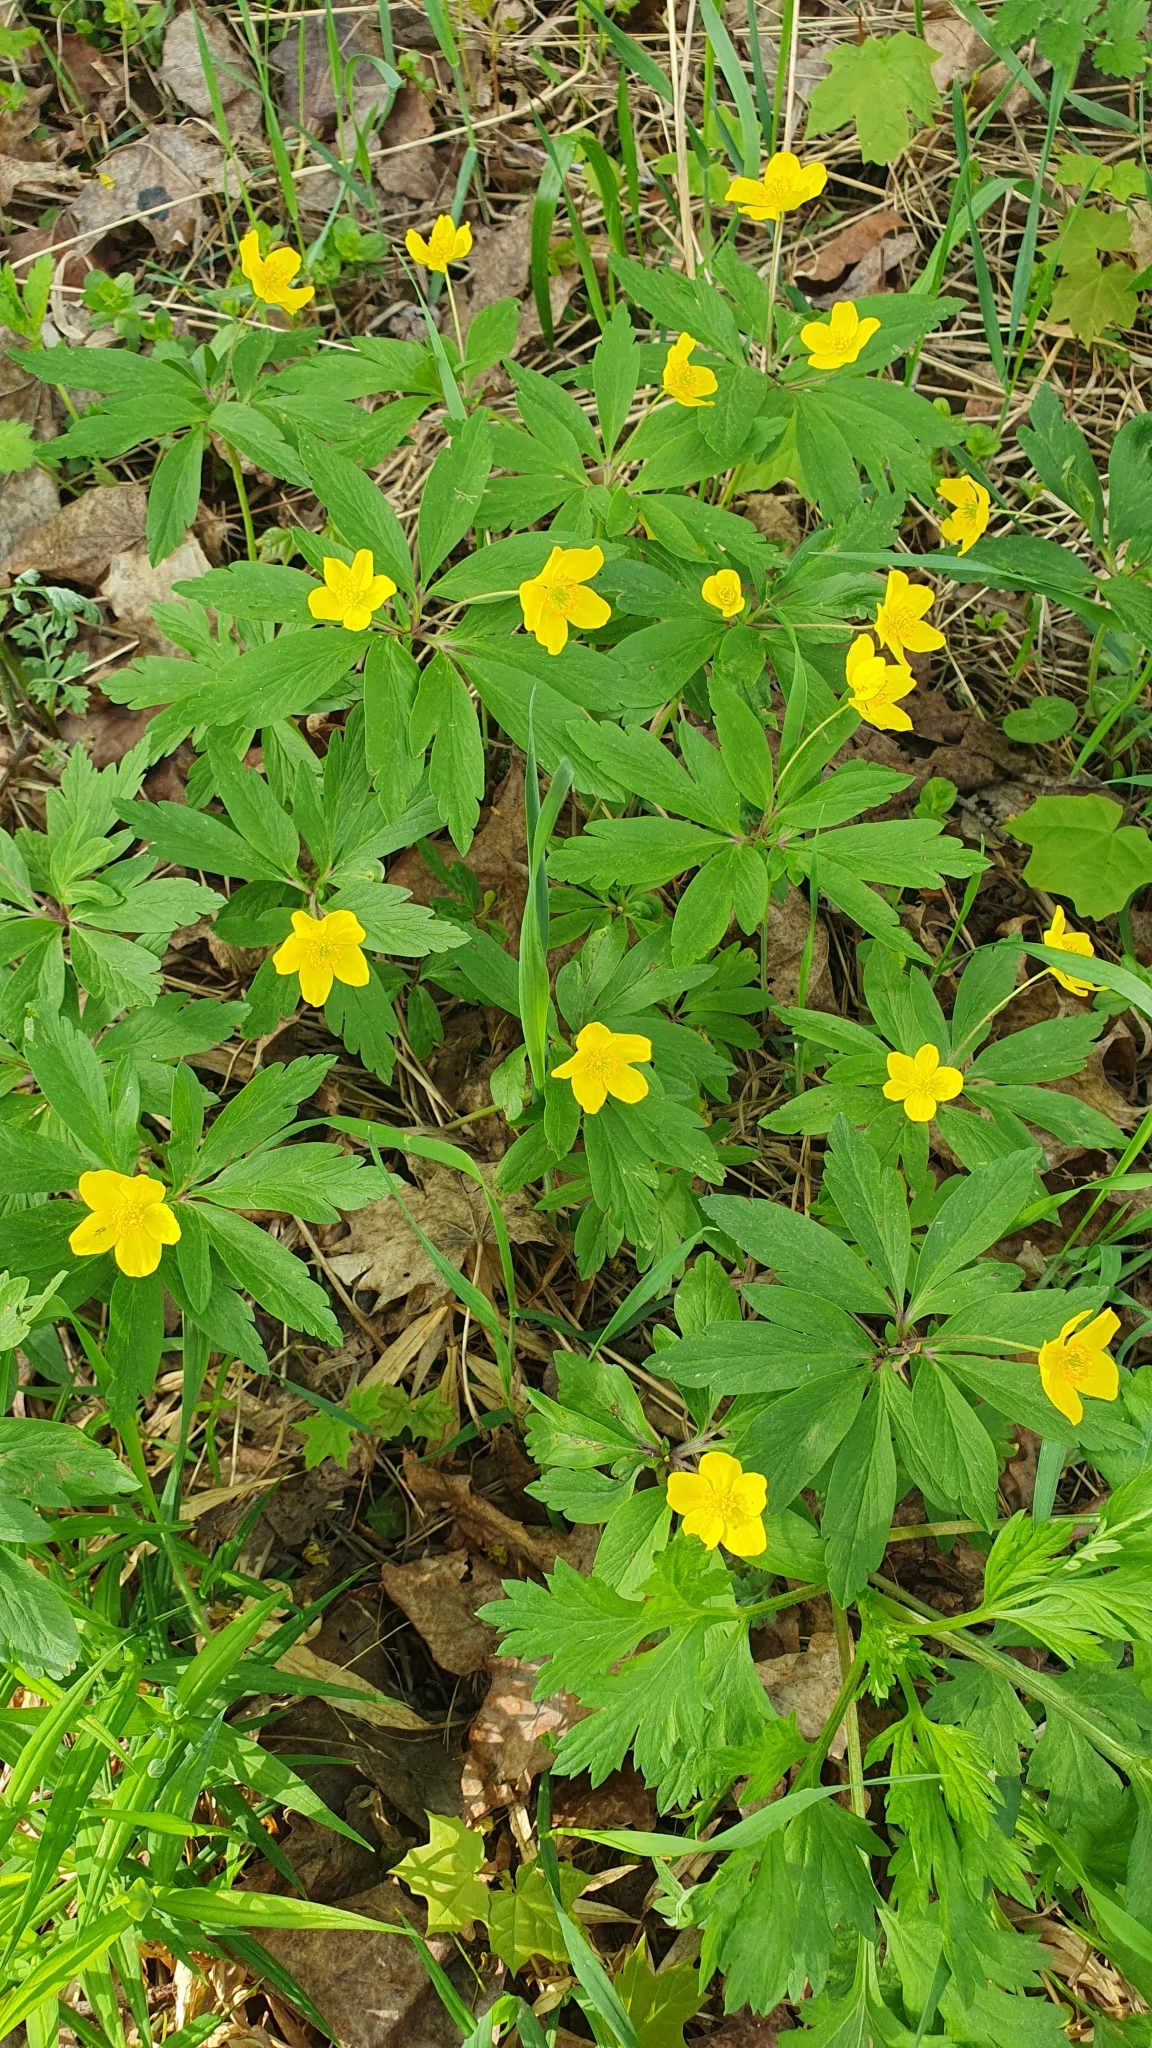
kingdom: Plantae
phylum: Tracheophyta
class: Magnoliopsida
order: Ranunculales
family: Ranunculaceae
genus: Anemone
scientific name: Anemone ranunculoides
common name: Yellow anemone
